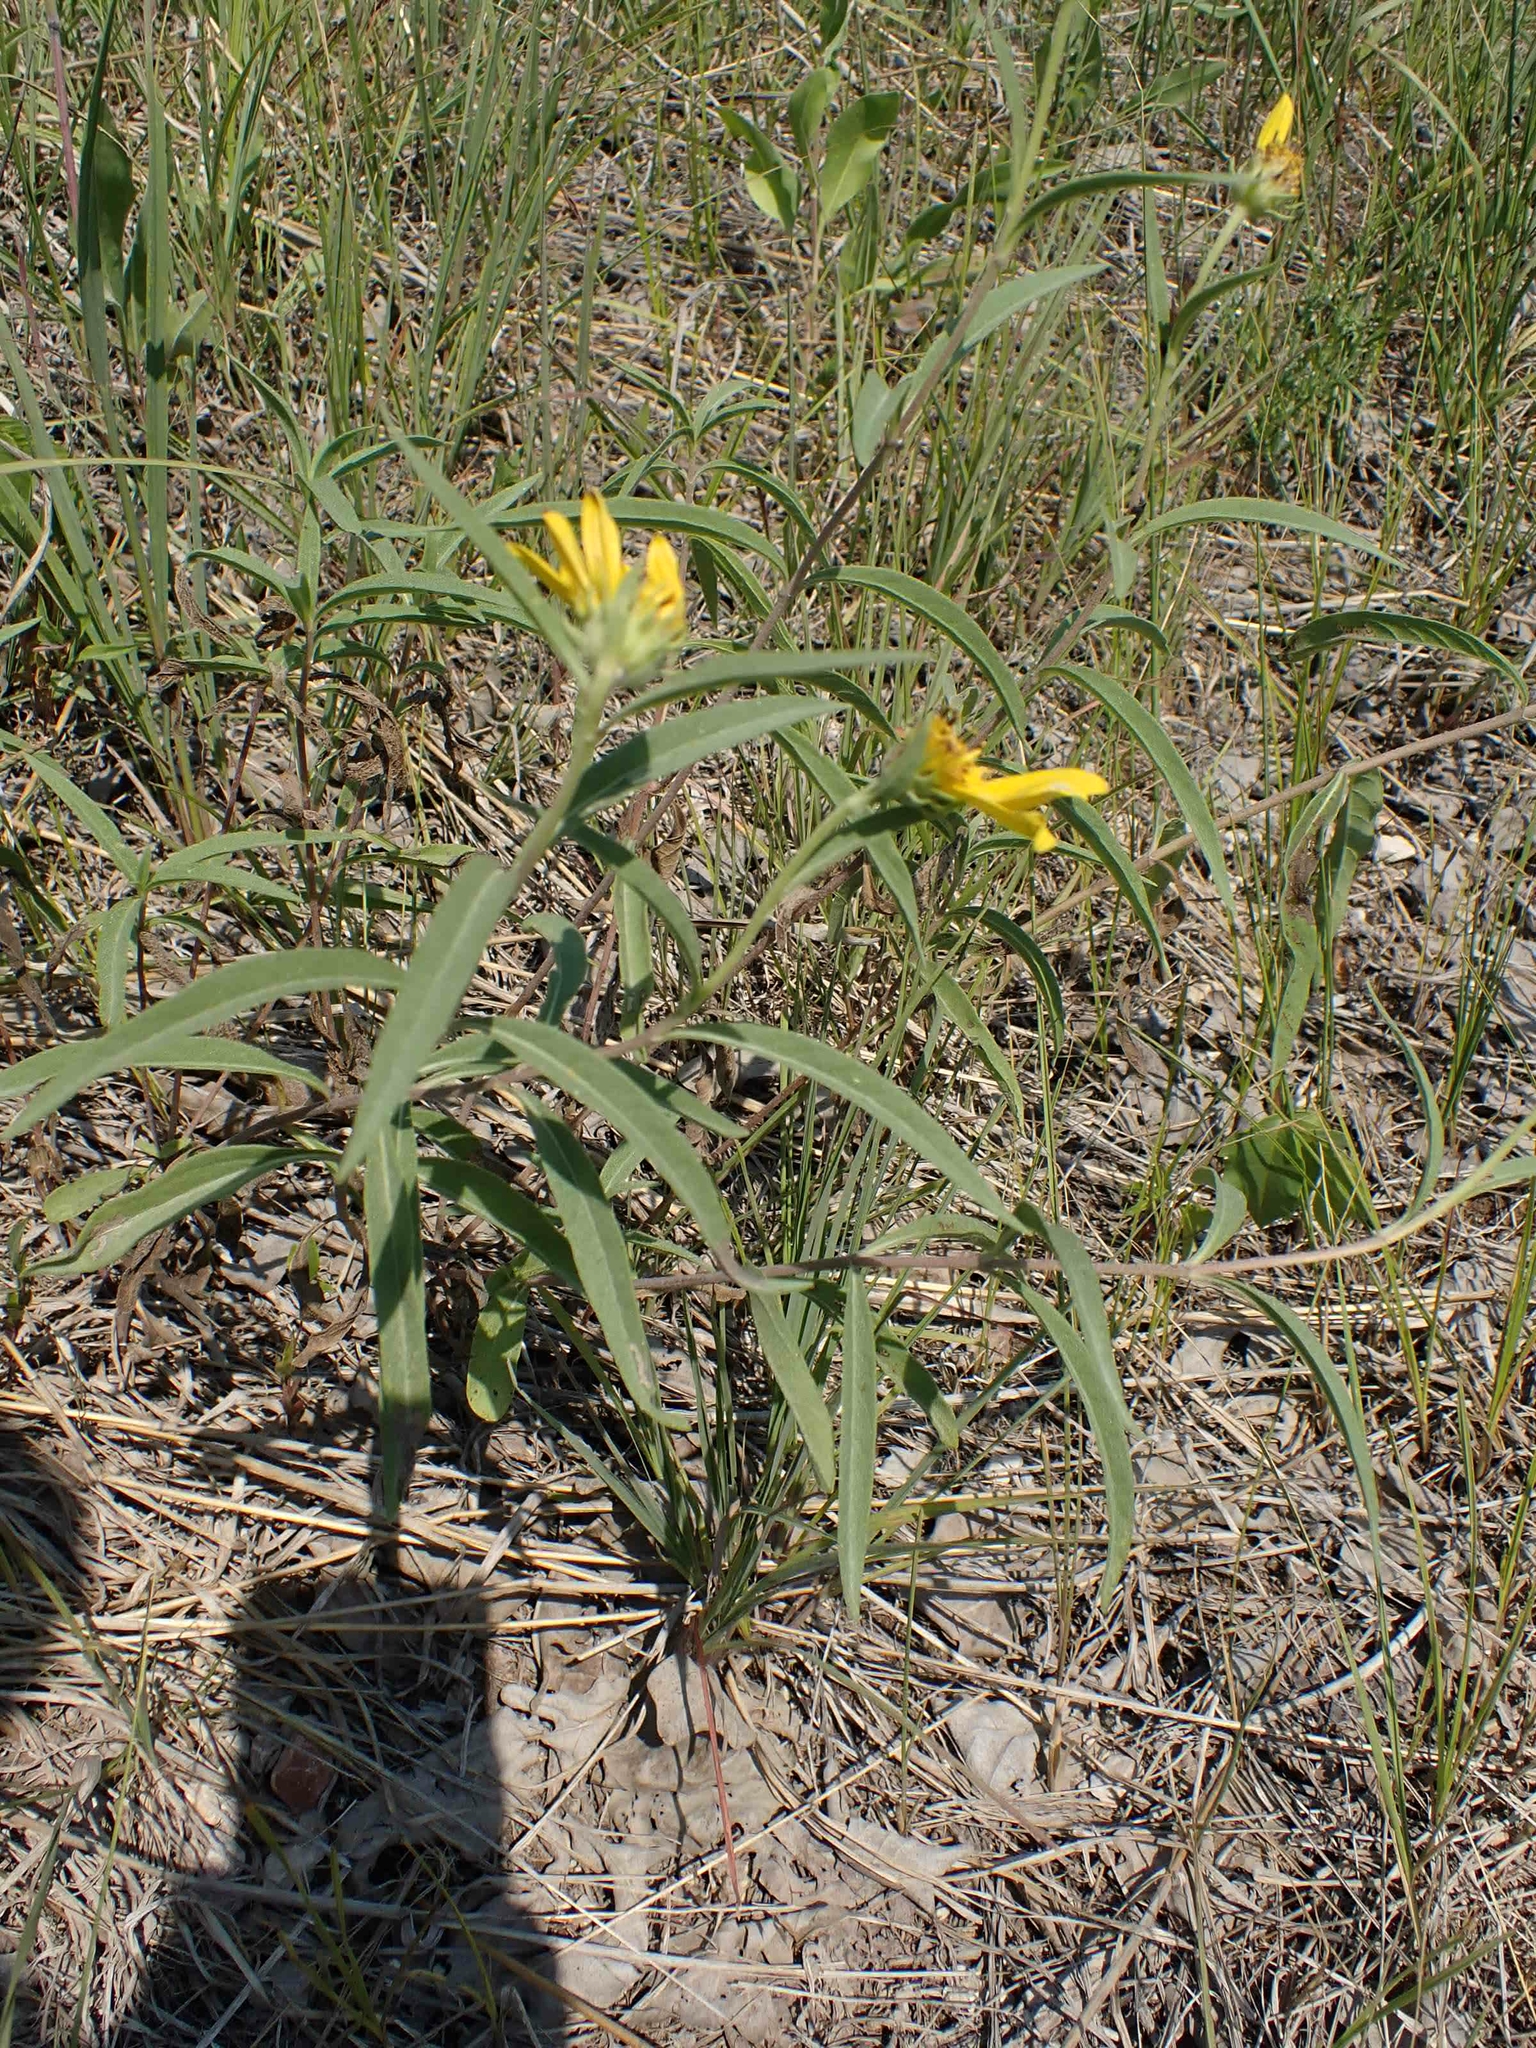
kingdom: Plantae
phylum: Tracheophyta
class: Magnoliopsida
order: Asterales
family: Asteraceae
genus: Helianthus
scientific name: Helianthus maximiliani
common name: Maximilian's sunflower
